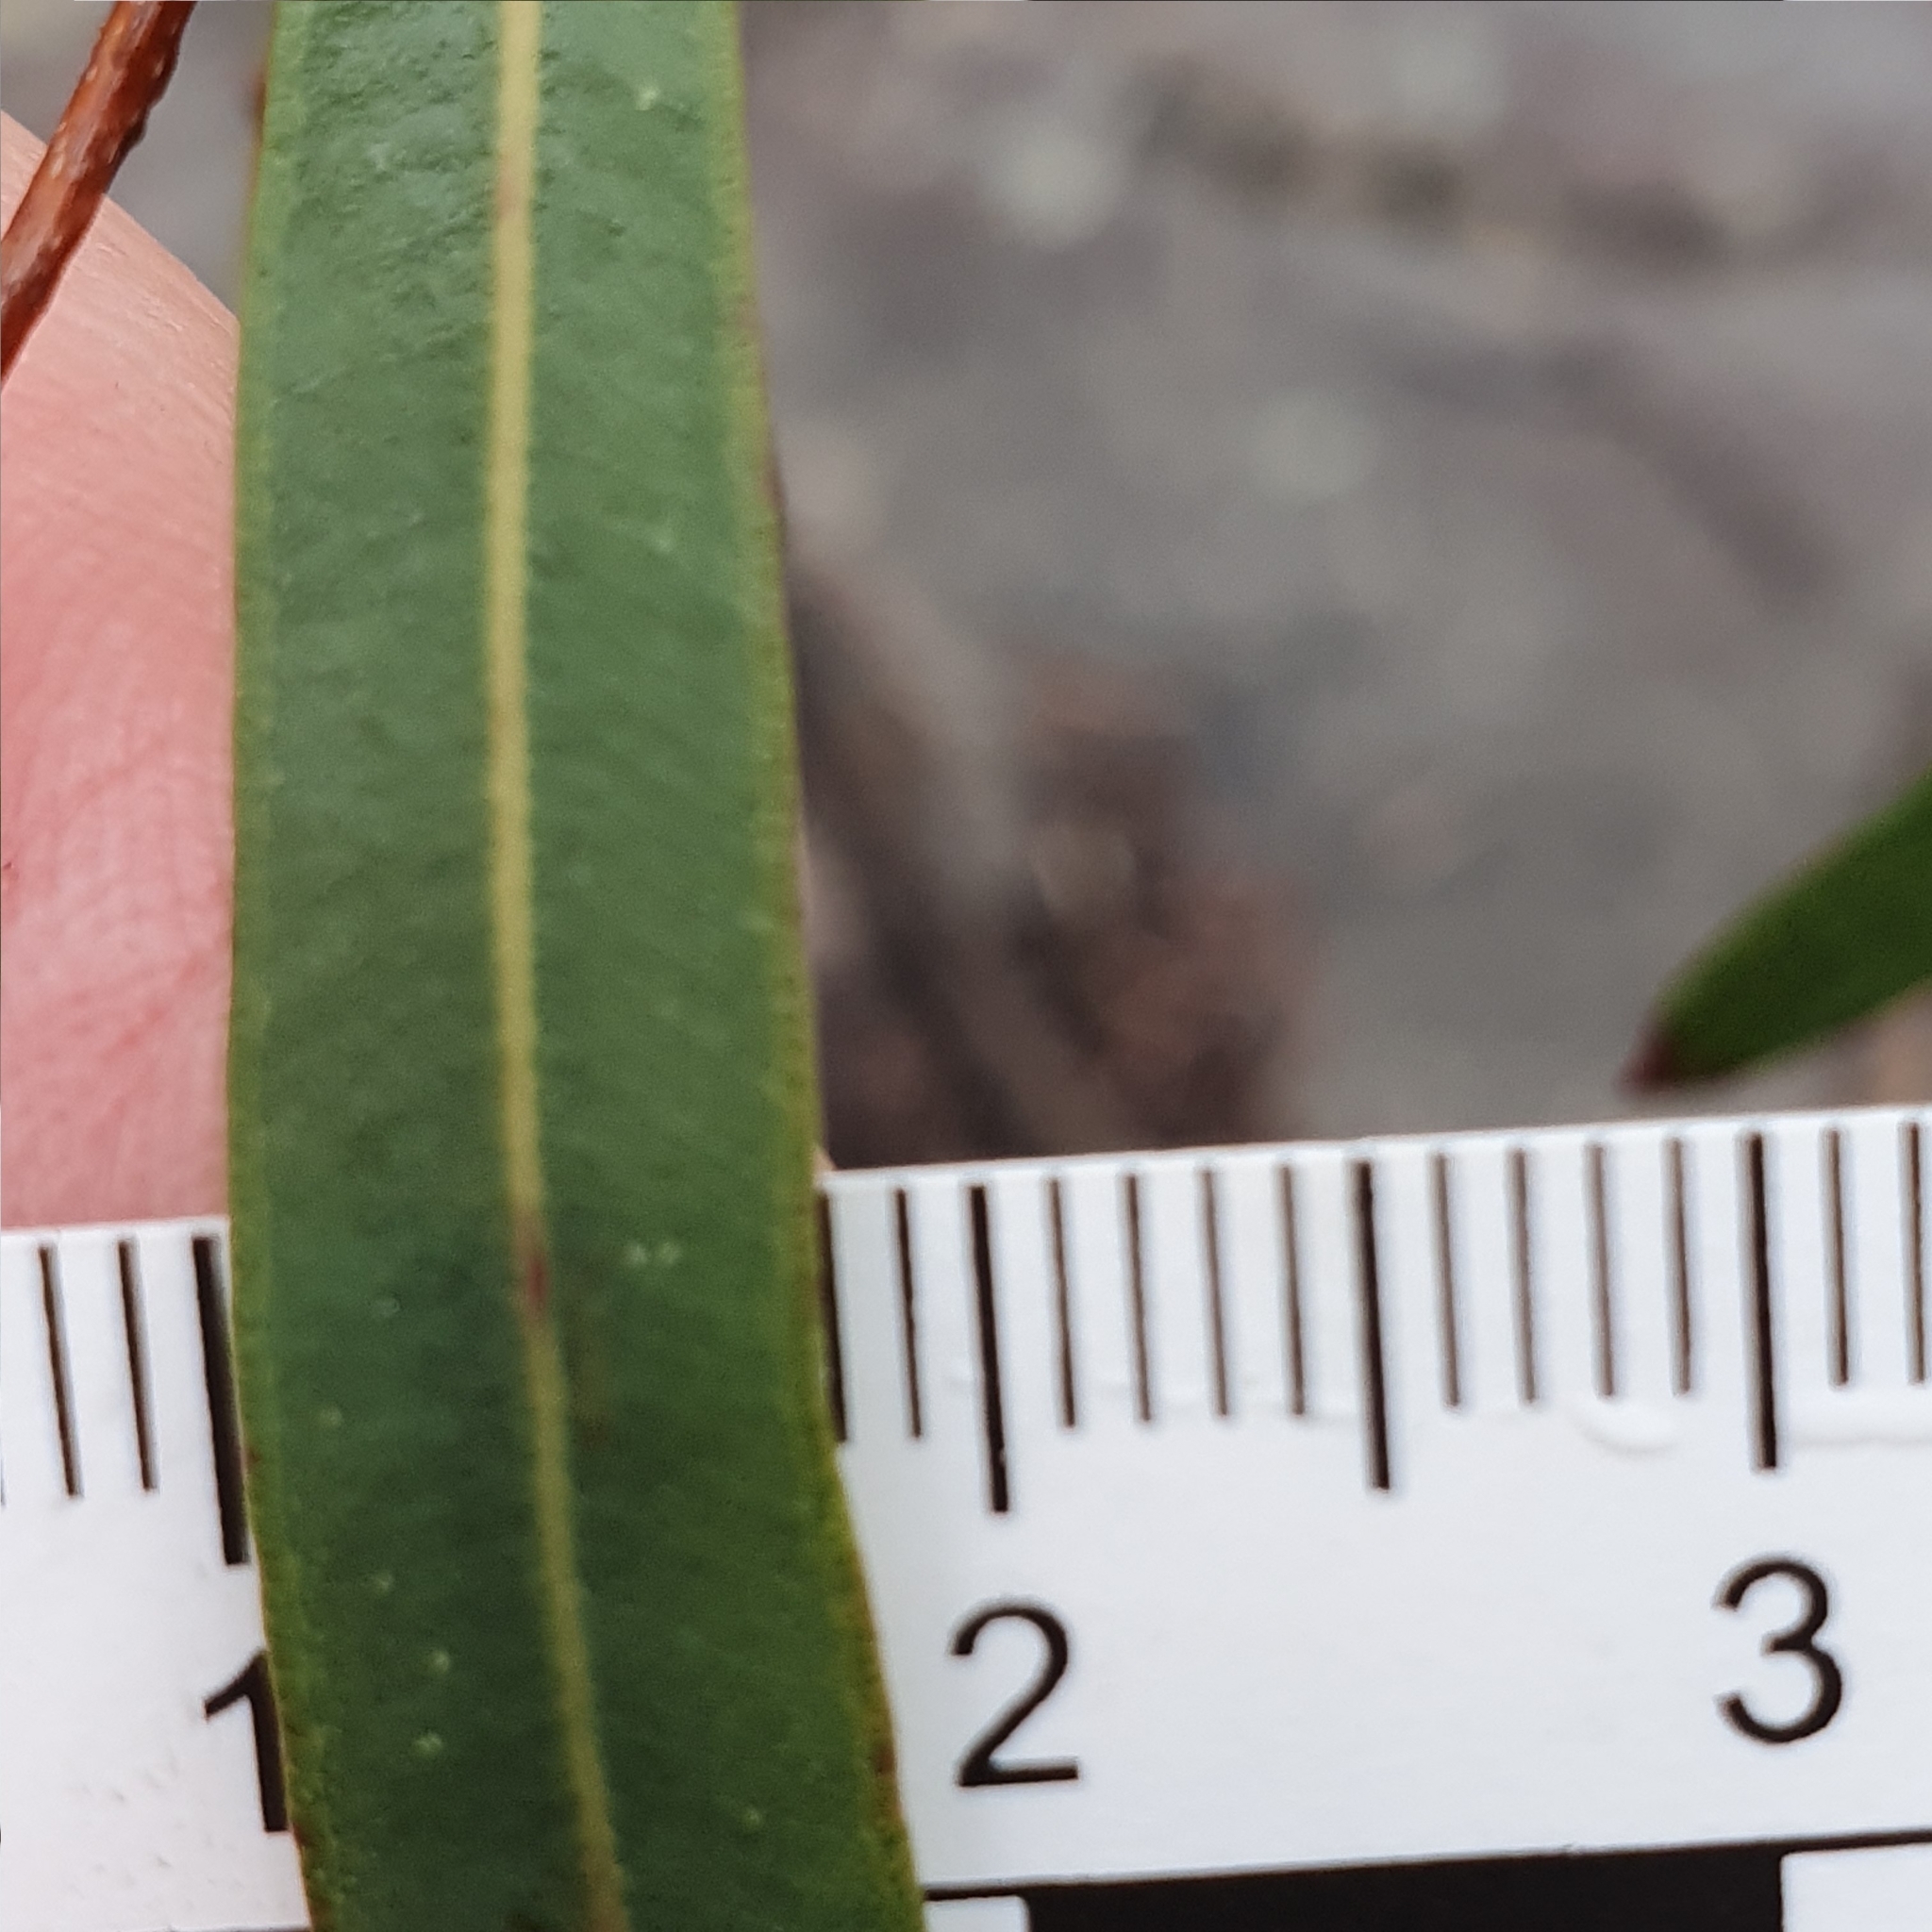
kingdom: Plantae
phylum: Tracheophyta
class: Magnoliopsida
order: Myrtales
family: Myrtaceae
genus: Angophora
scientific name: Angophora bakeri
